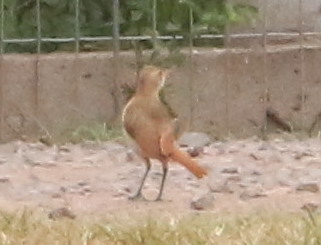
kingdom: Animalia
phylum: Chordata
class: Aves
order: Passeriformes
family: Furnariidae
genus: Furnarius
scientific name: Furnarius rufus
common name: Rufous hornero
